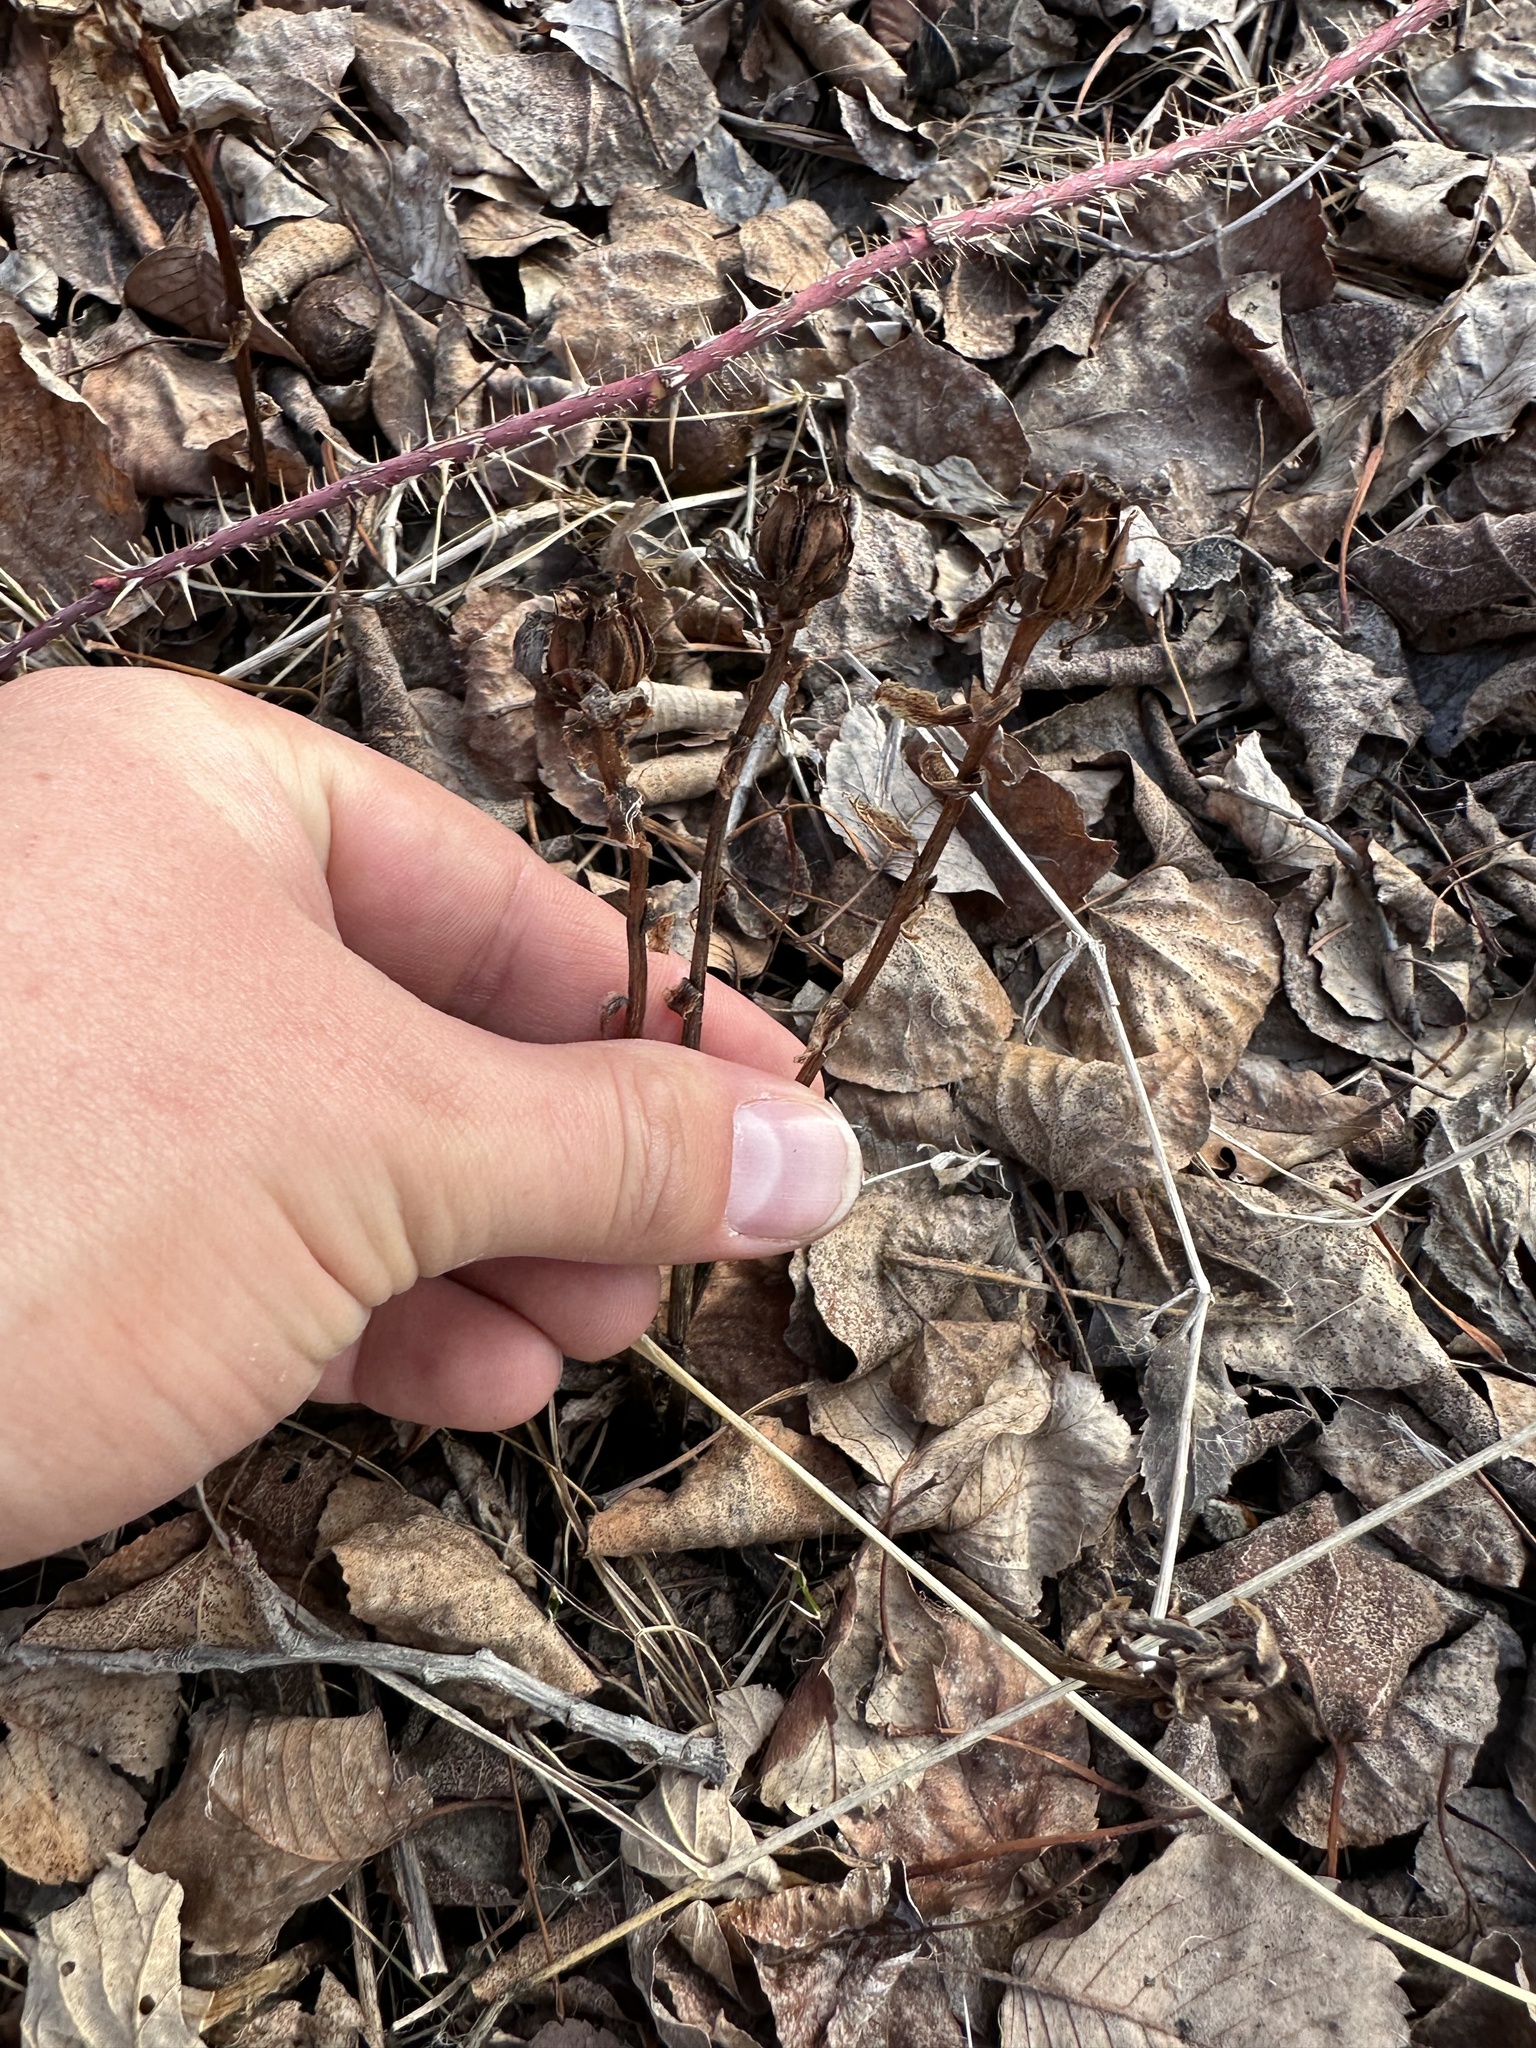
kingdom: Plantae
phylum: Tracheophyta
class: Magnoliopsida
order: Ericales
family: Ericaceae
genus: Monotropa
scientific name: Monotropa uniflora
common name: Convulsion root
